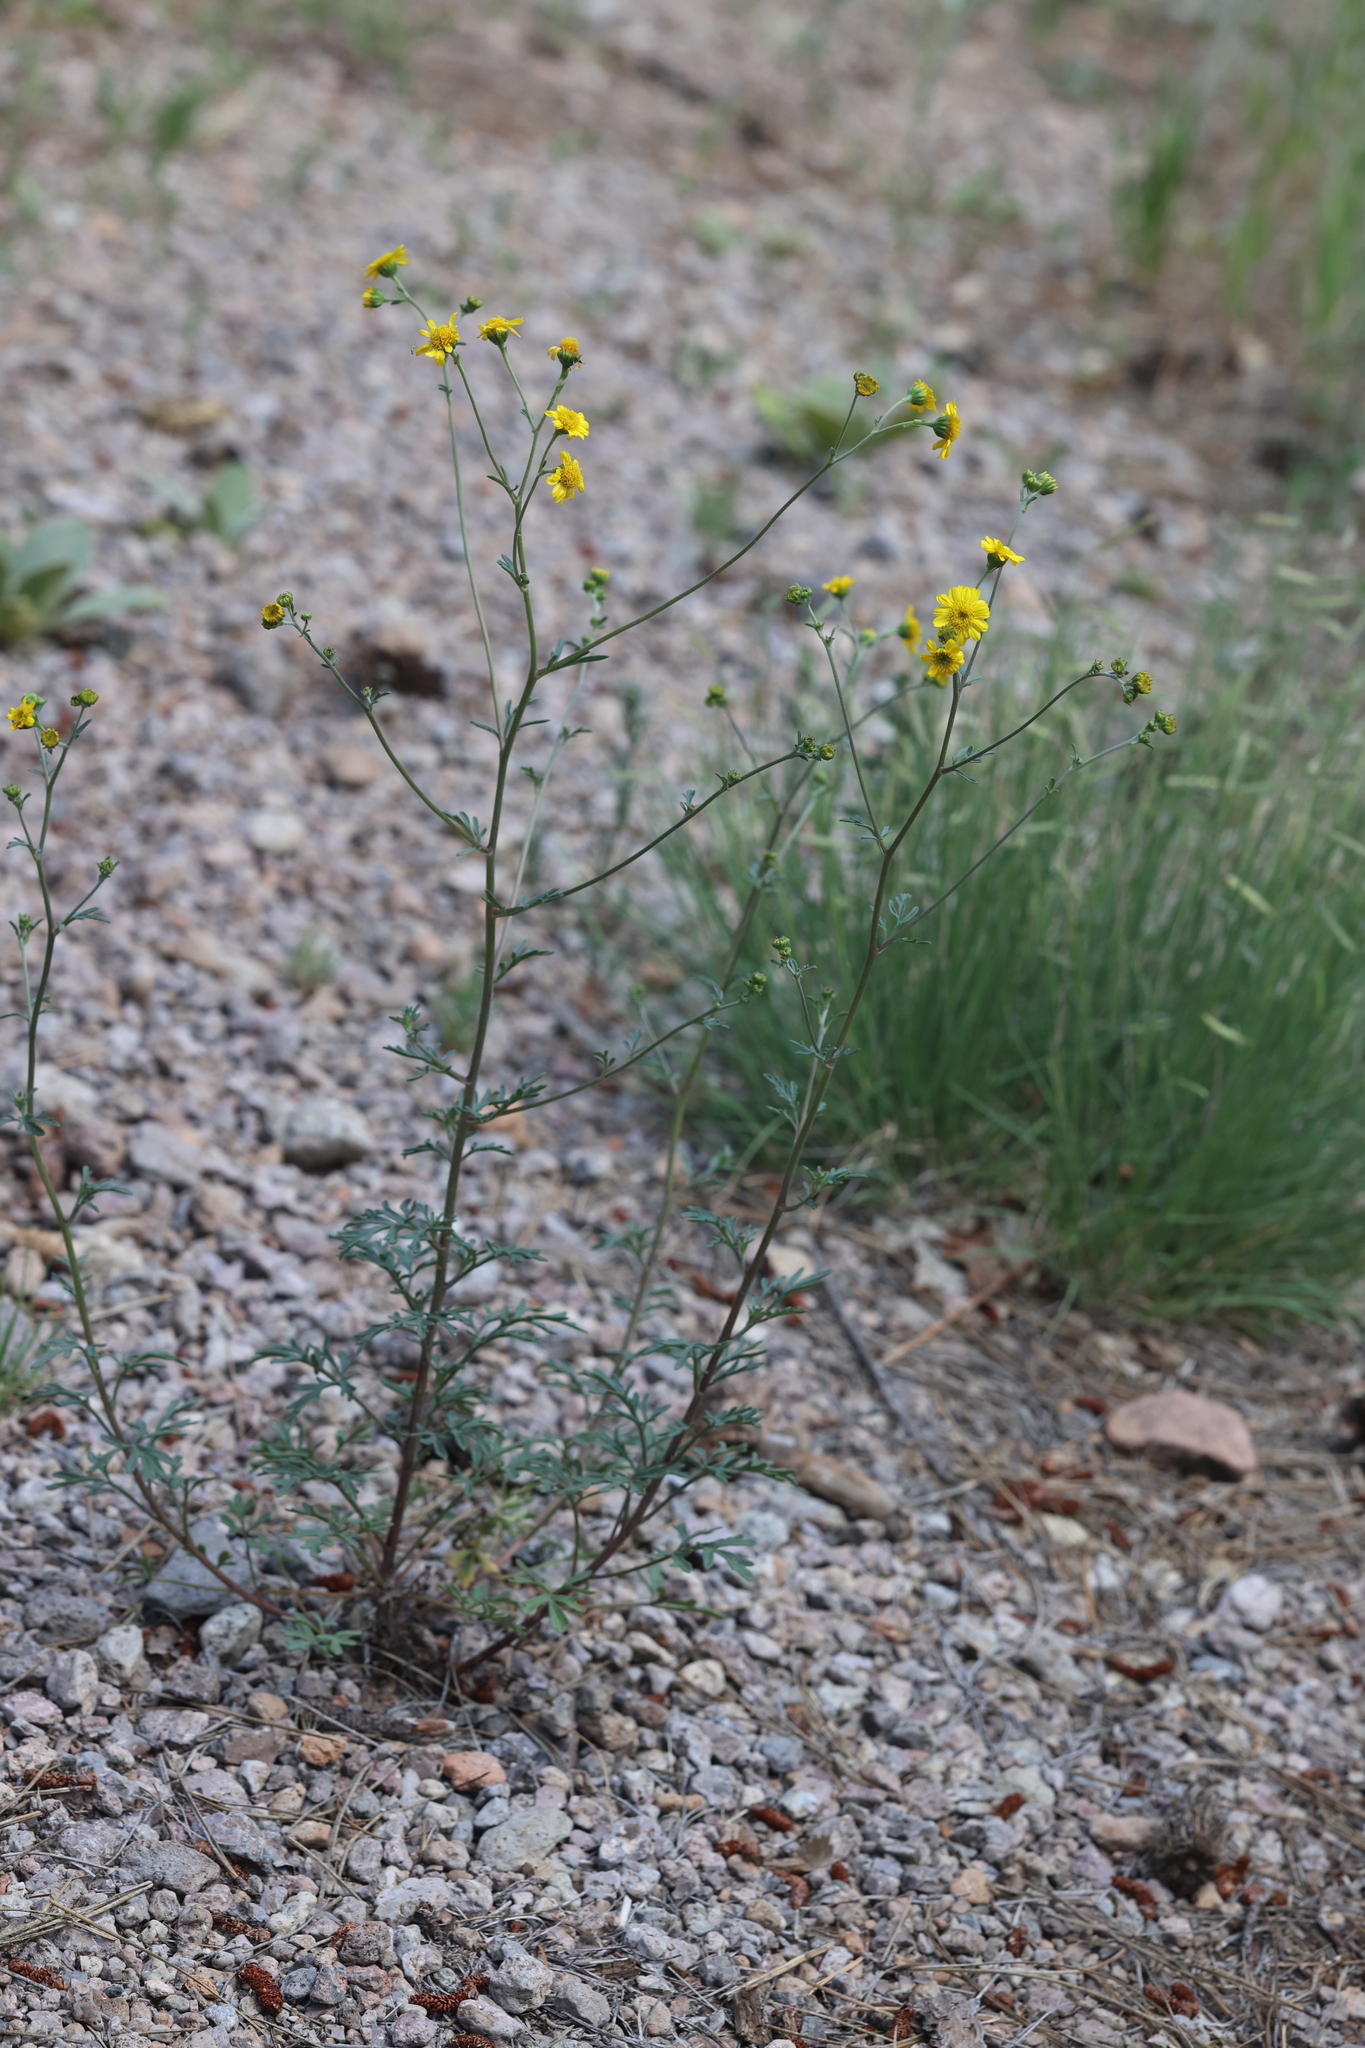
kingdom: Plantae
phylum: Tracheophyta
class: Magnoliopsida
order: Asterales
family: Asteraceae
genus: Hymenothrix
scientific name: Hymenothrix dissecta
